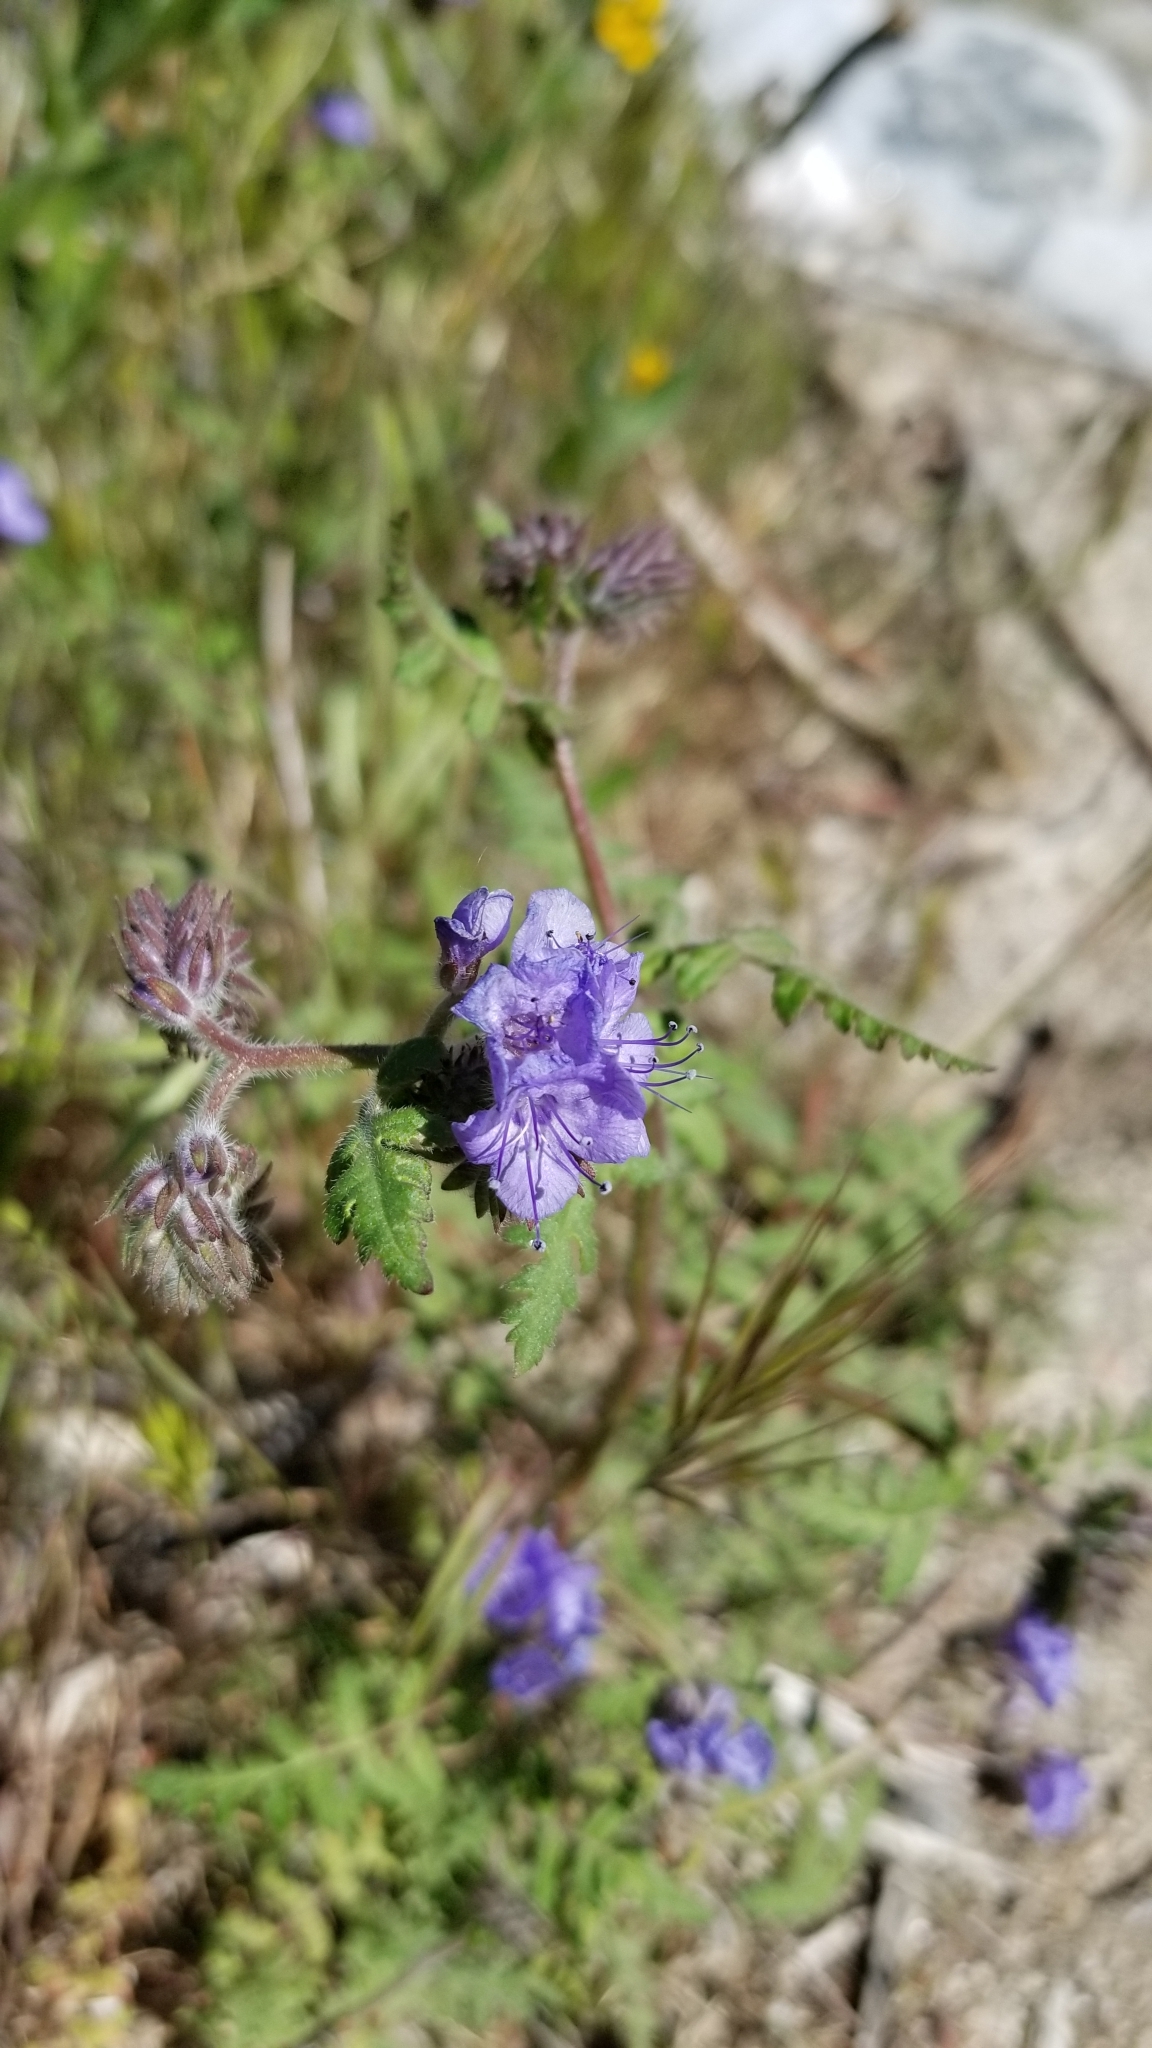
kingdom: Plantae
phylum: Tracheophyta
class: Magnoliopsida
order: Boraginales
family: Hydrophyllaceae
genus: Phacelia
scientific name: Phacelia distans
